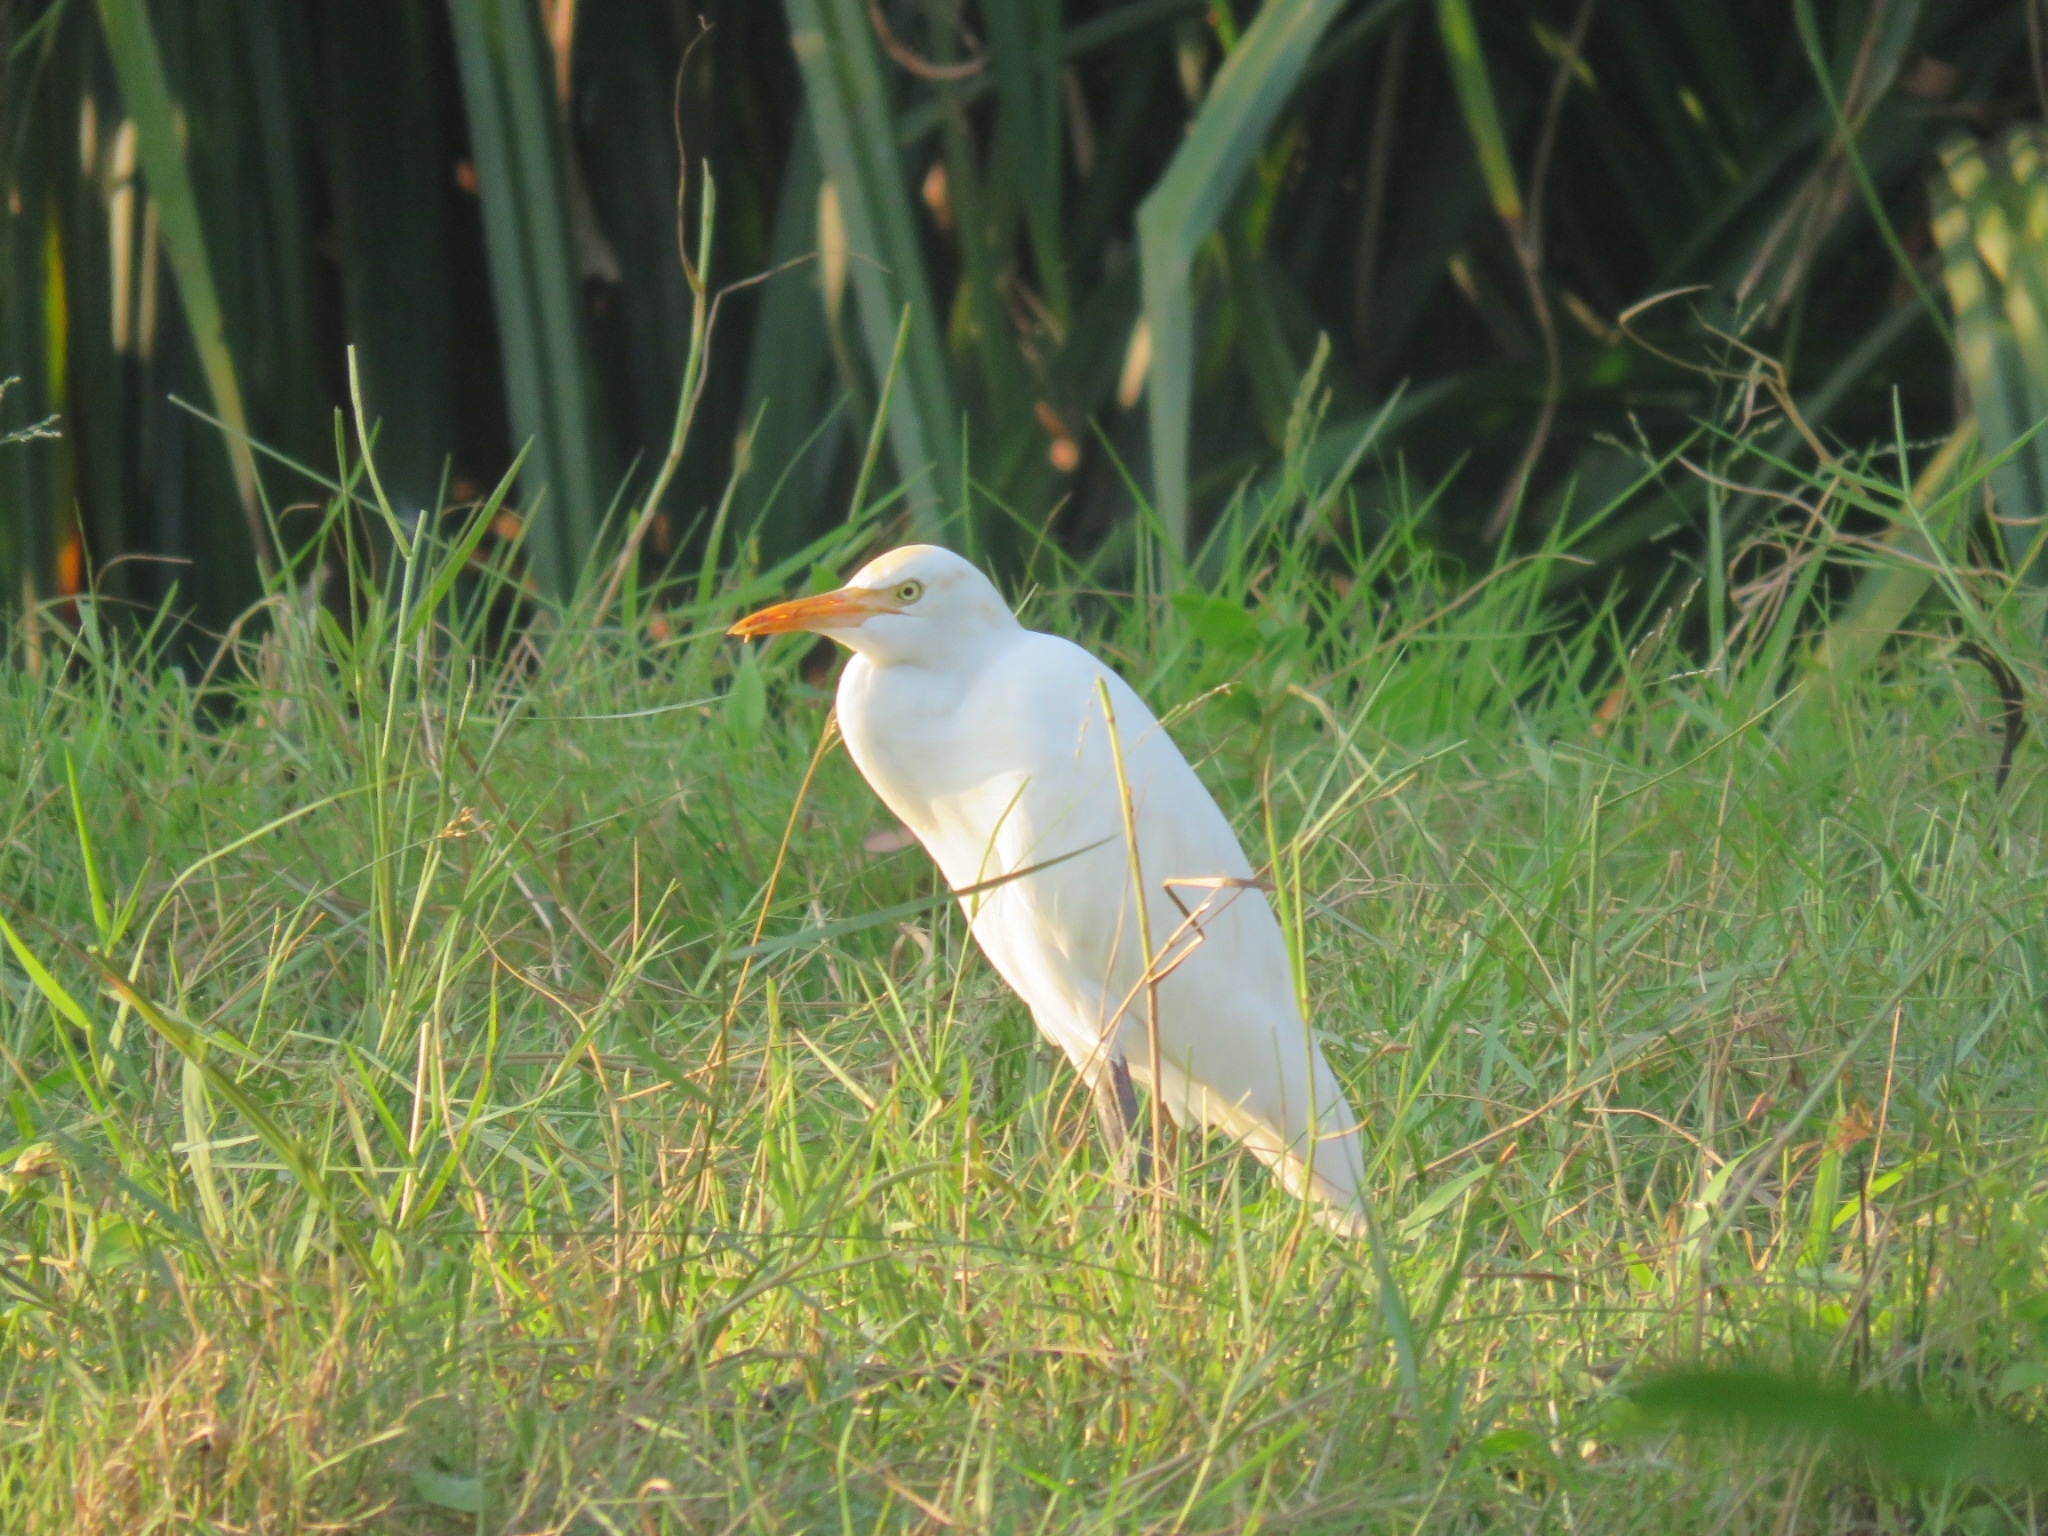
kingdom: Animalia
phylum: Chordata
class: Aves
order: Pelecaniformes
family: Ardeidae
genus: Bubulcus
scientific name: Bubulcus coromandus
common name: Eastern cattle egret
